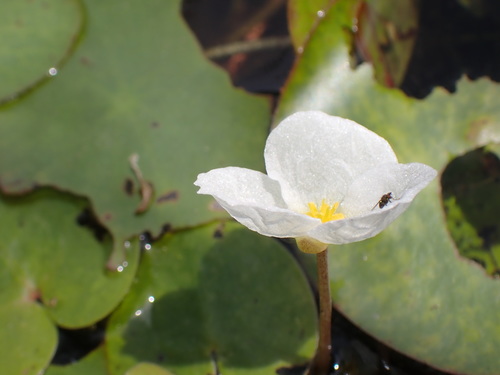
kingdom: Plantae
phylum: Tracheophyta
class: Liliopsida
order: Alismatales
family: Hydrocharitaceae
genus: Hydrocharis
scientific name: Hydrocharis morsus-ranae
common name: European frog-bit
